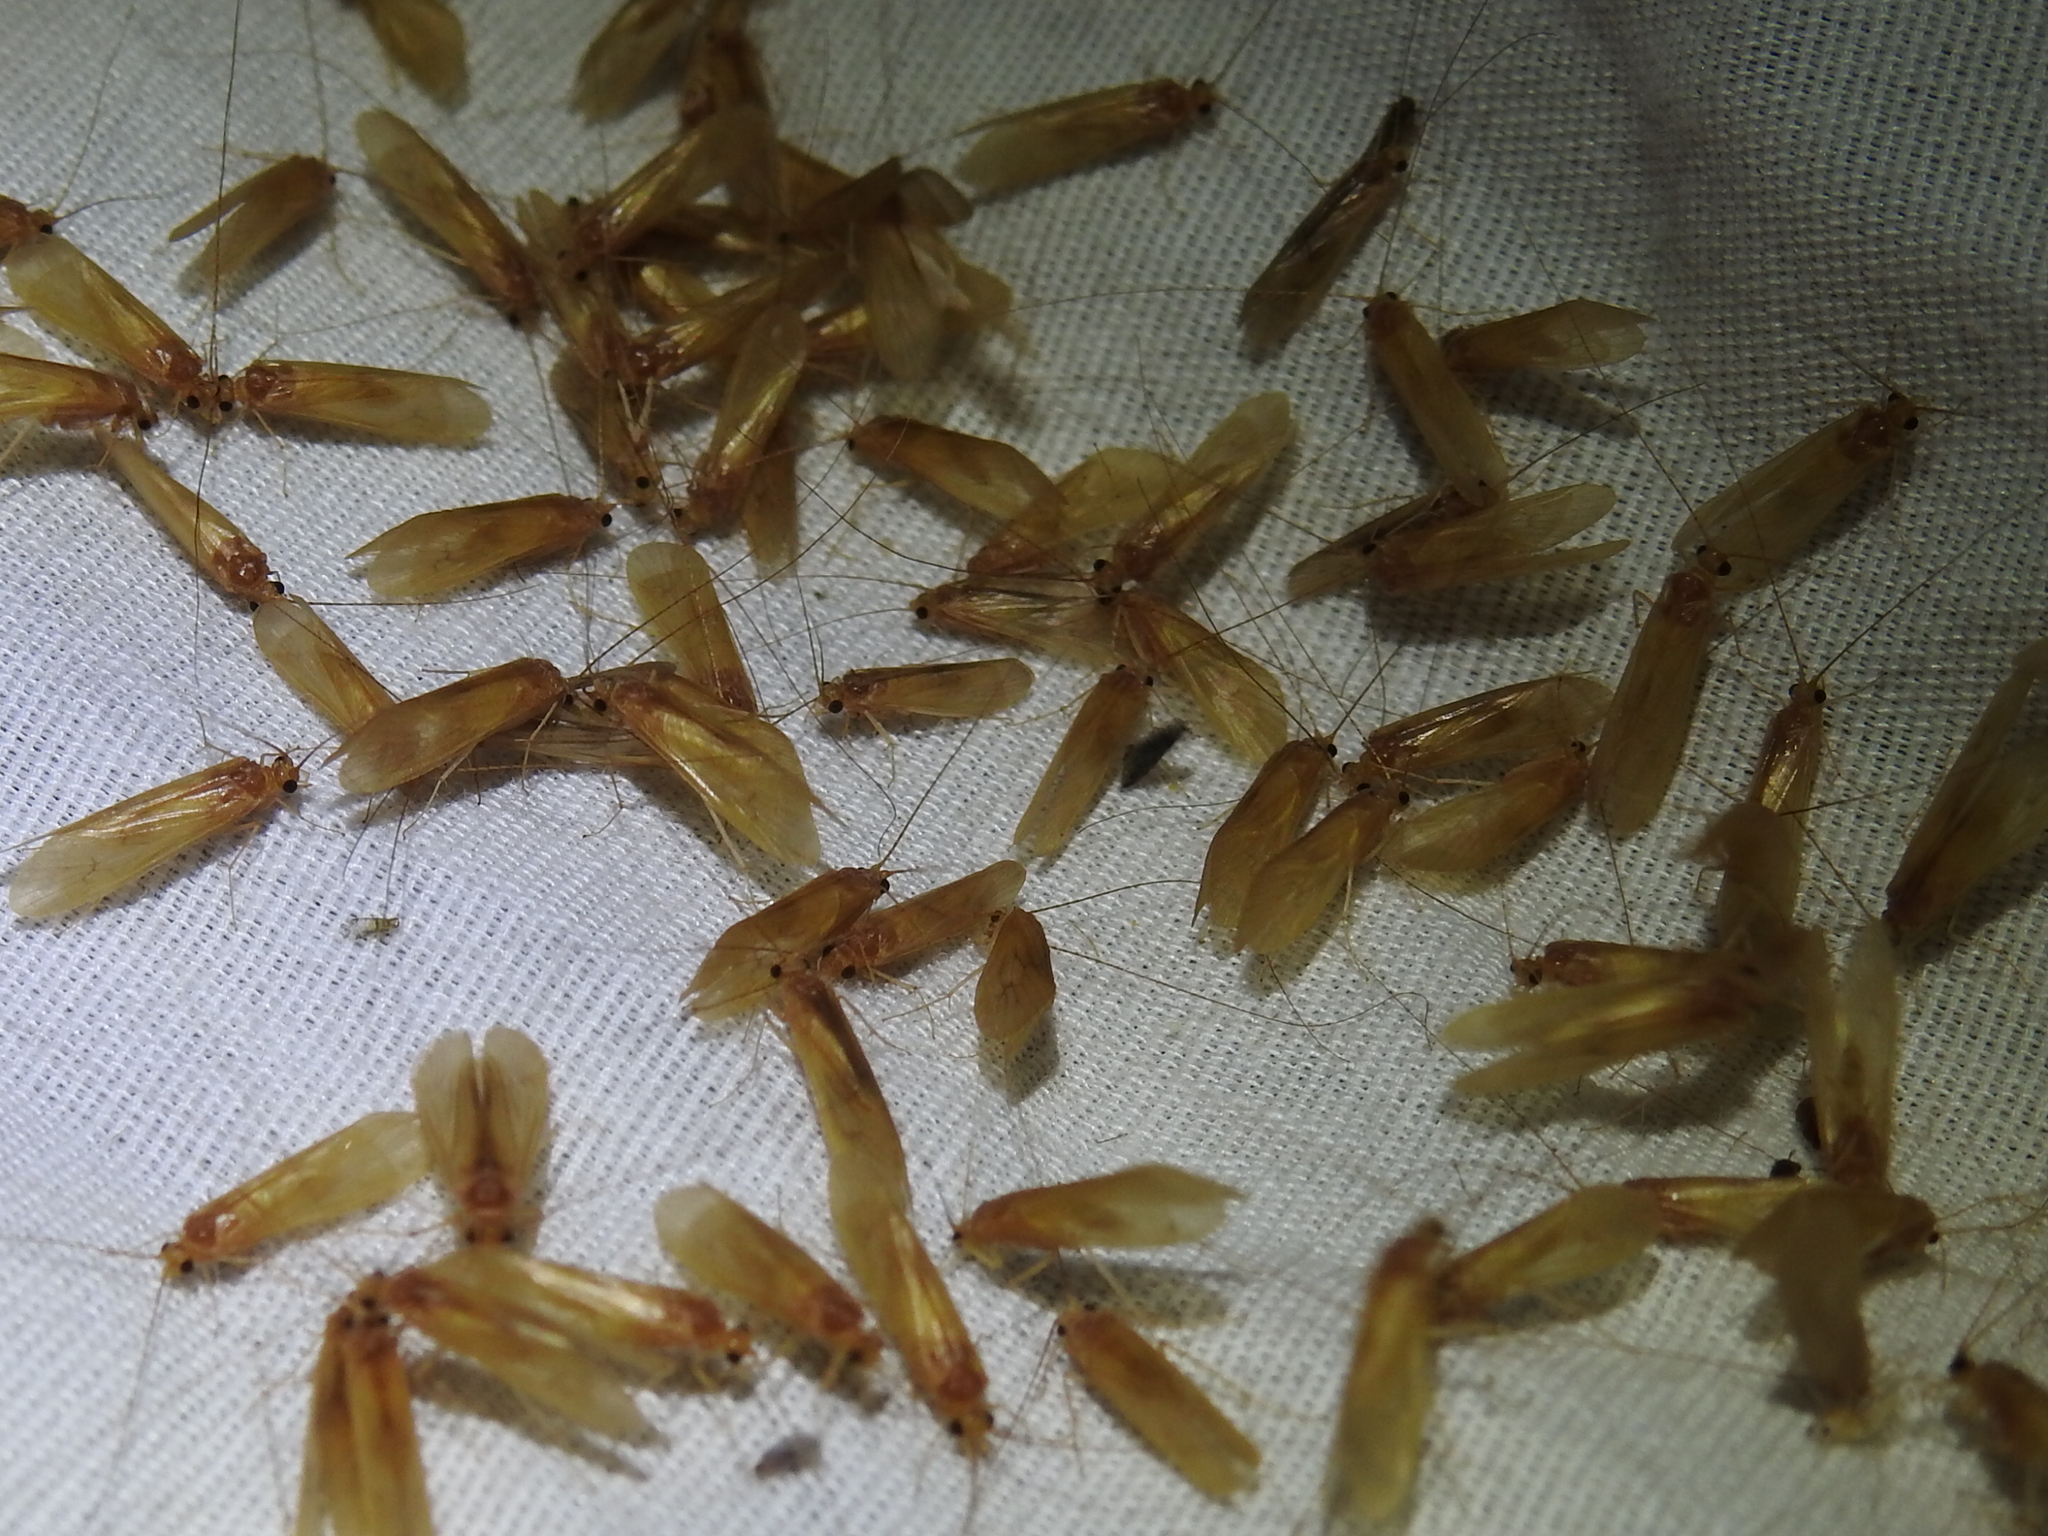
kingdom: Animalia
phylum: Arthropoda
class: Insecta
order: Trichoptera
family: Hydropsychidae
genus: Potamyia
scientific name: Potamyia flava
